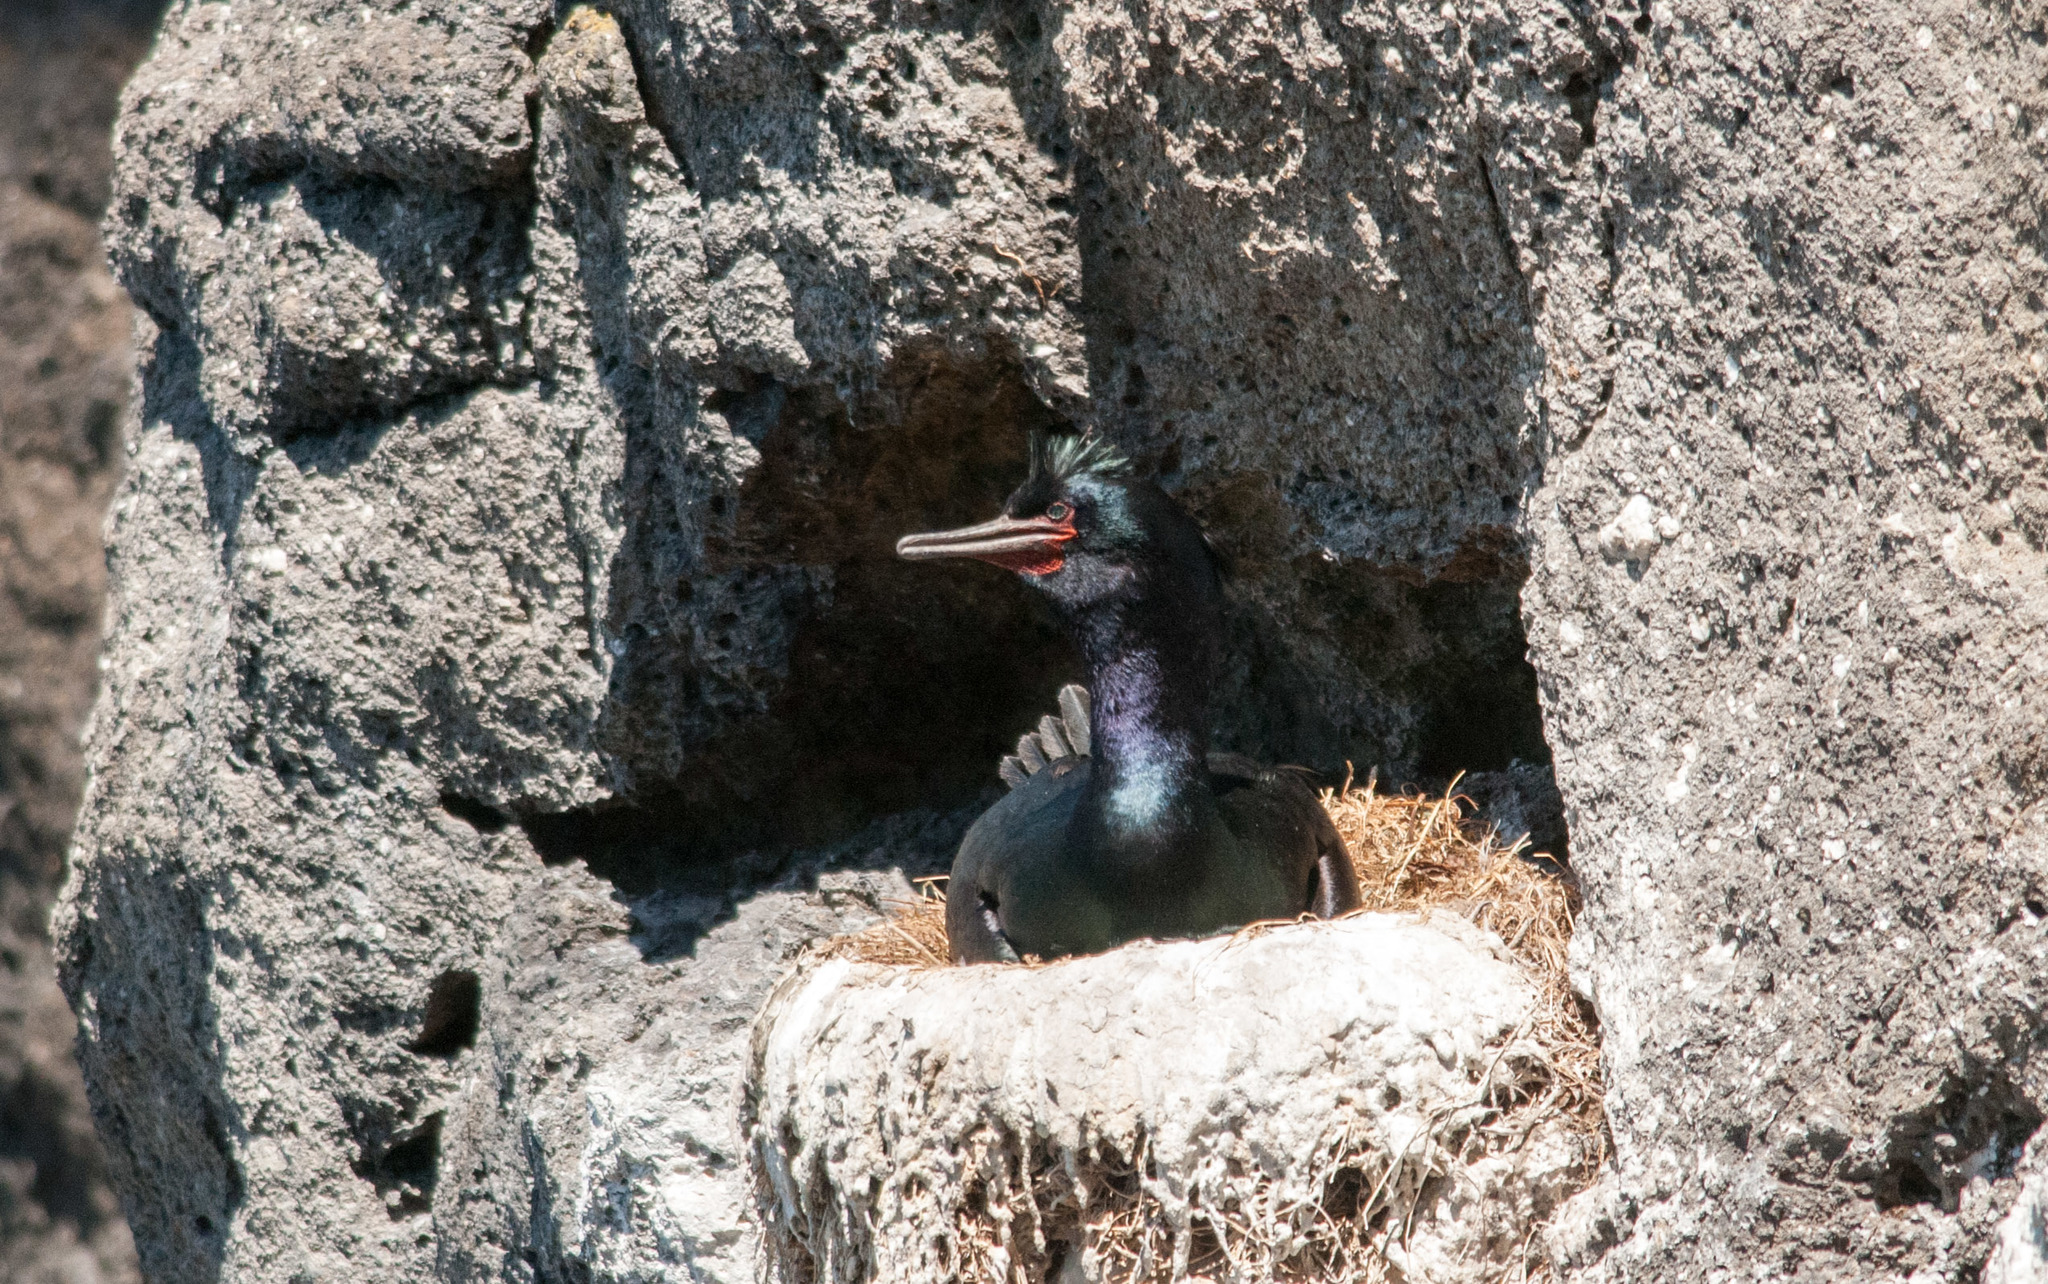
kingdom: Animalia
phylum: Chordata
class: Aves
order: Suliformes
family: Phalacrocoracidae
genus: Phalacrocorax
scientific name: Phalacrocorax pelagicus
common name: Pelagic cormorant
